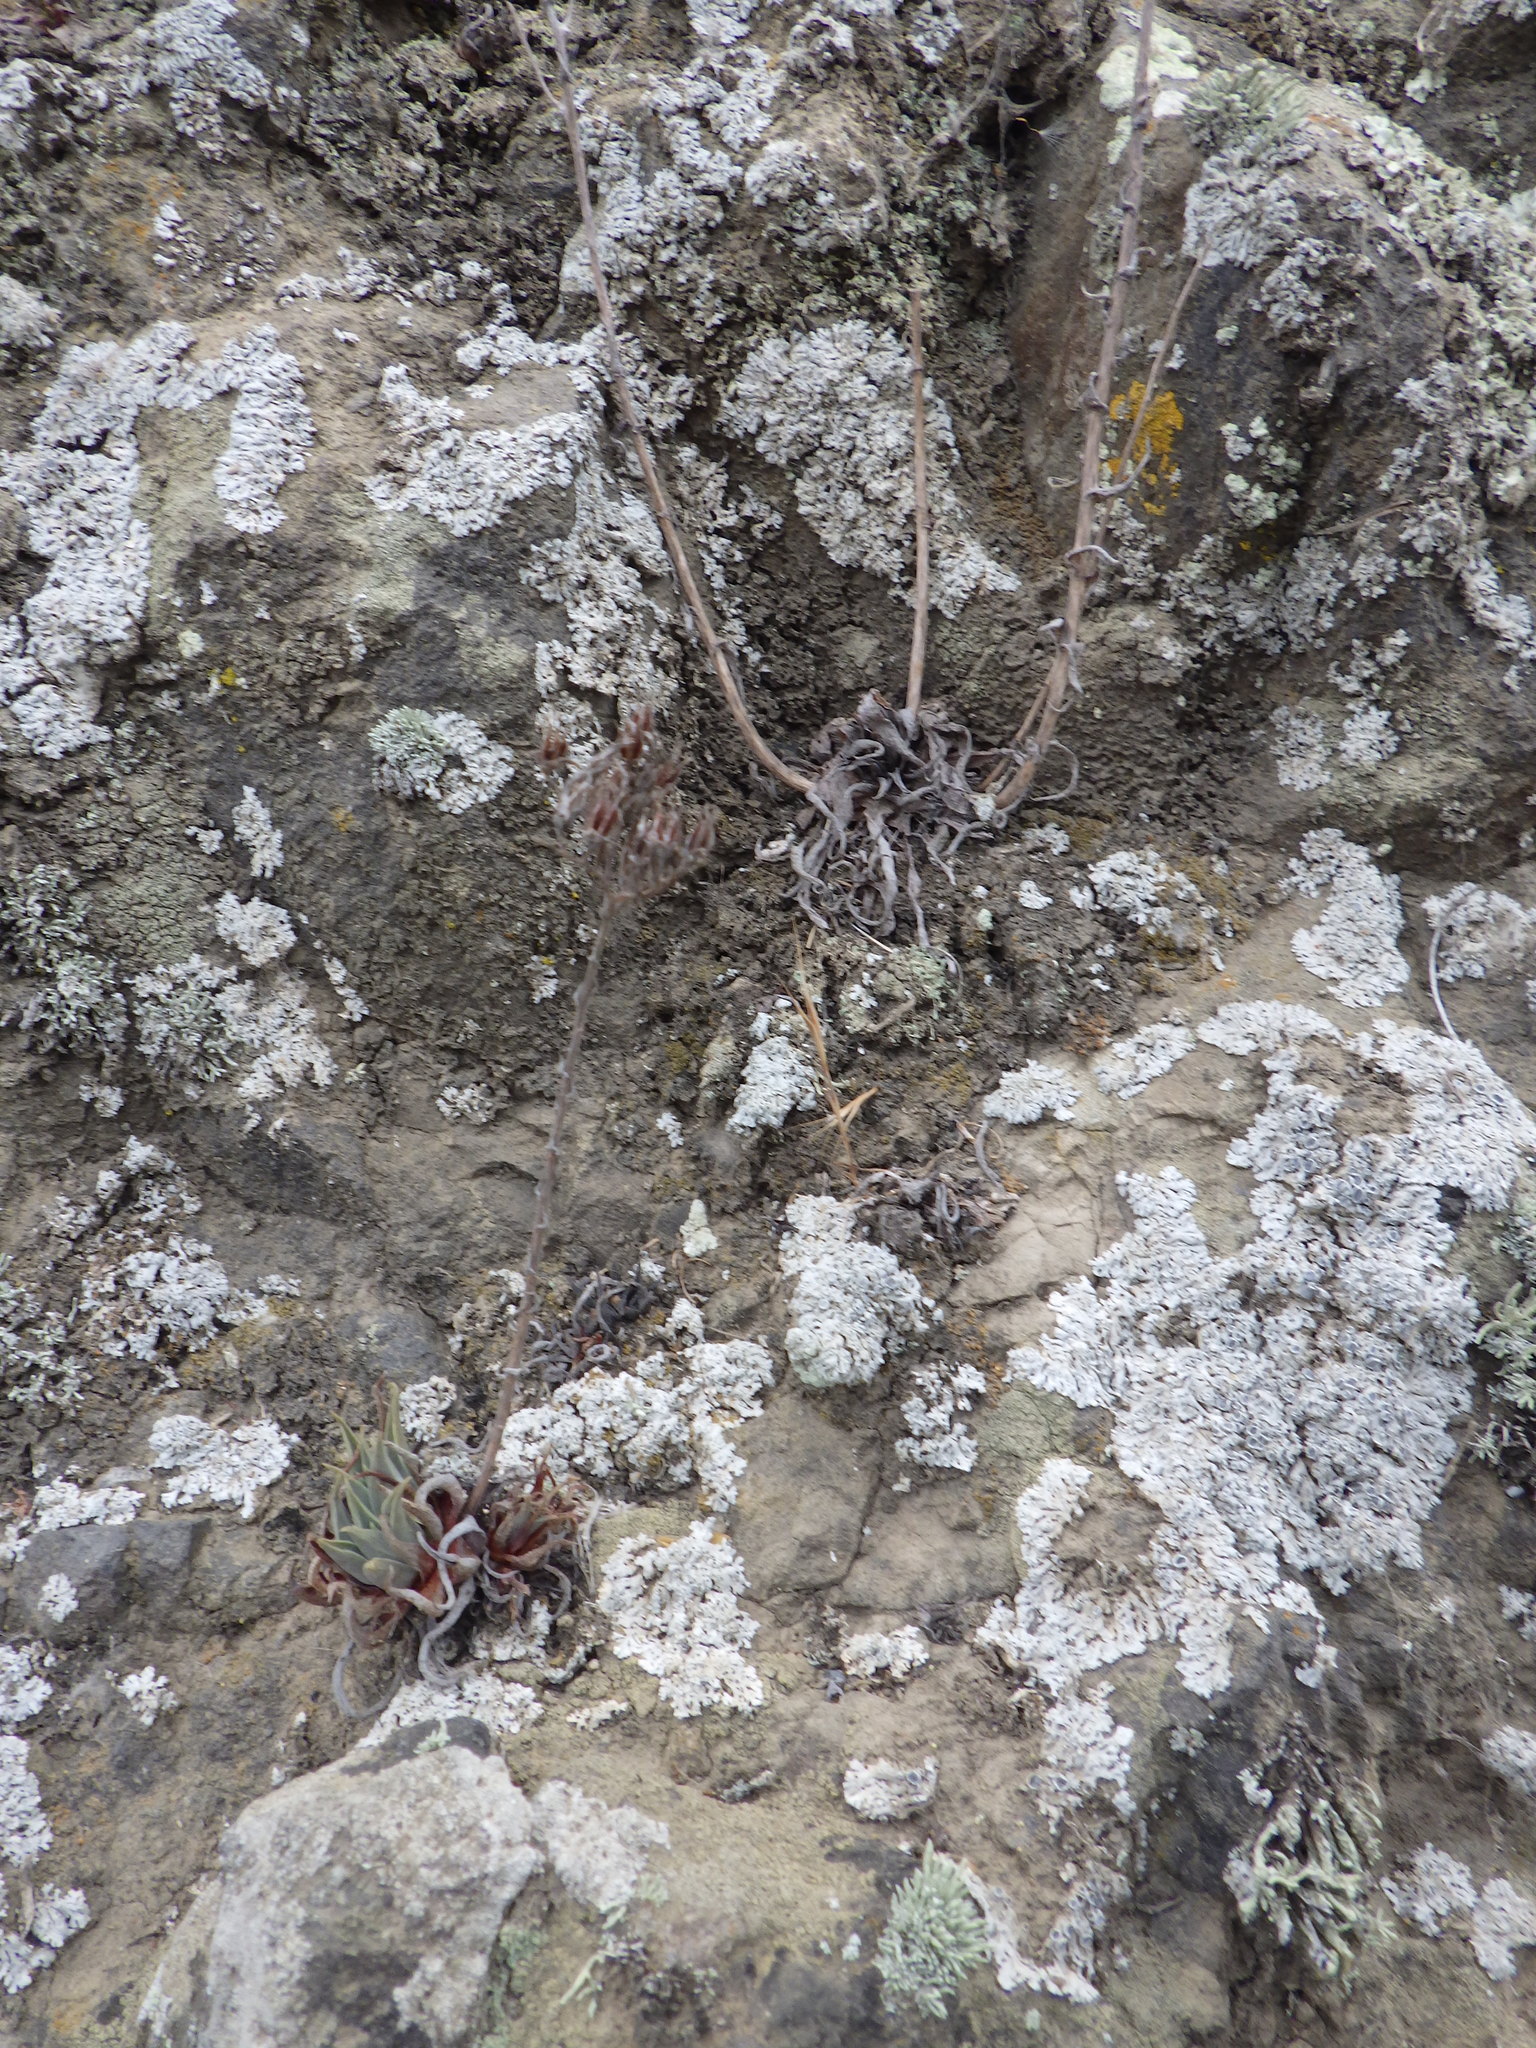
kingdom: Plantae
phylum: Tracheophyta
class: Magnoliopsida
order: Saxifragales
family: Crassulaceae
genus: Dudleya
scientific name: Dudleya verityi
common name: Verity dudleya
